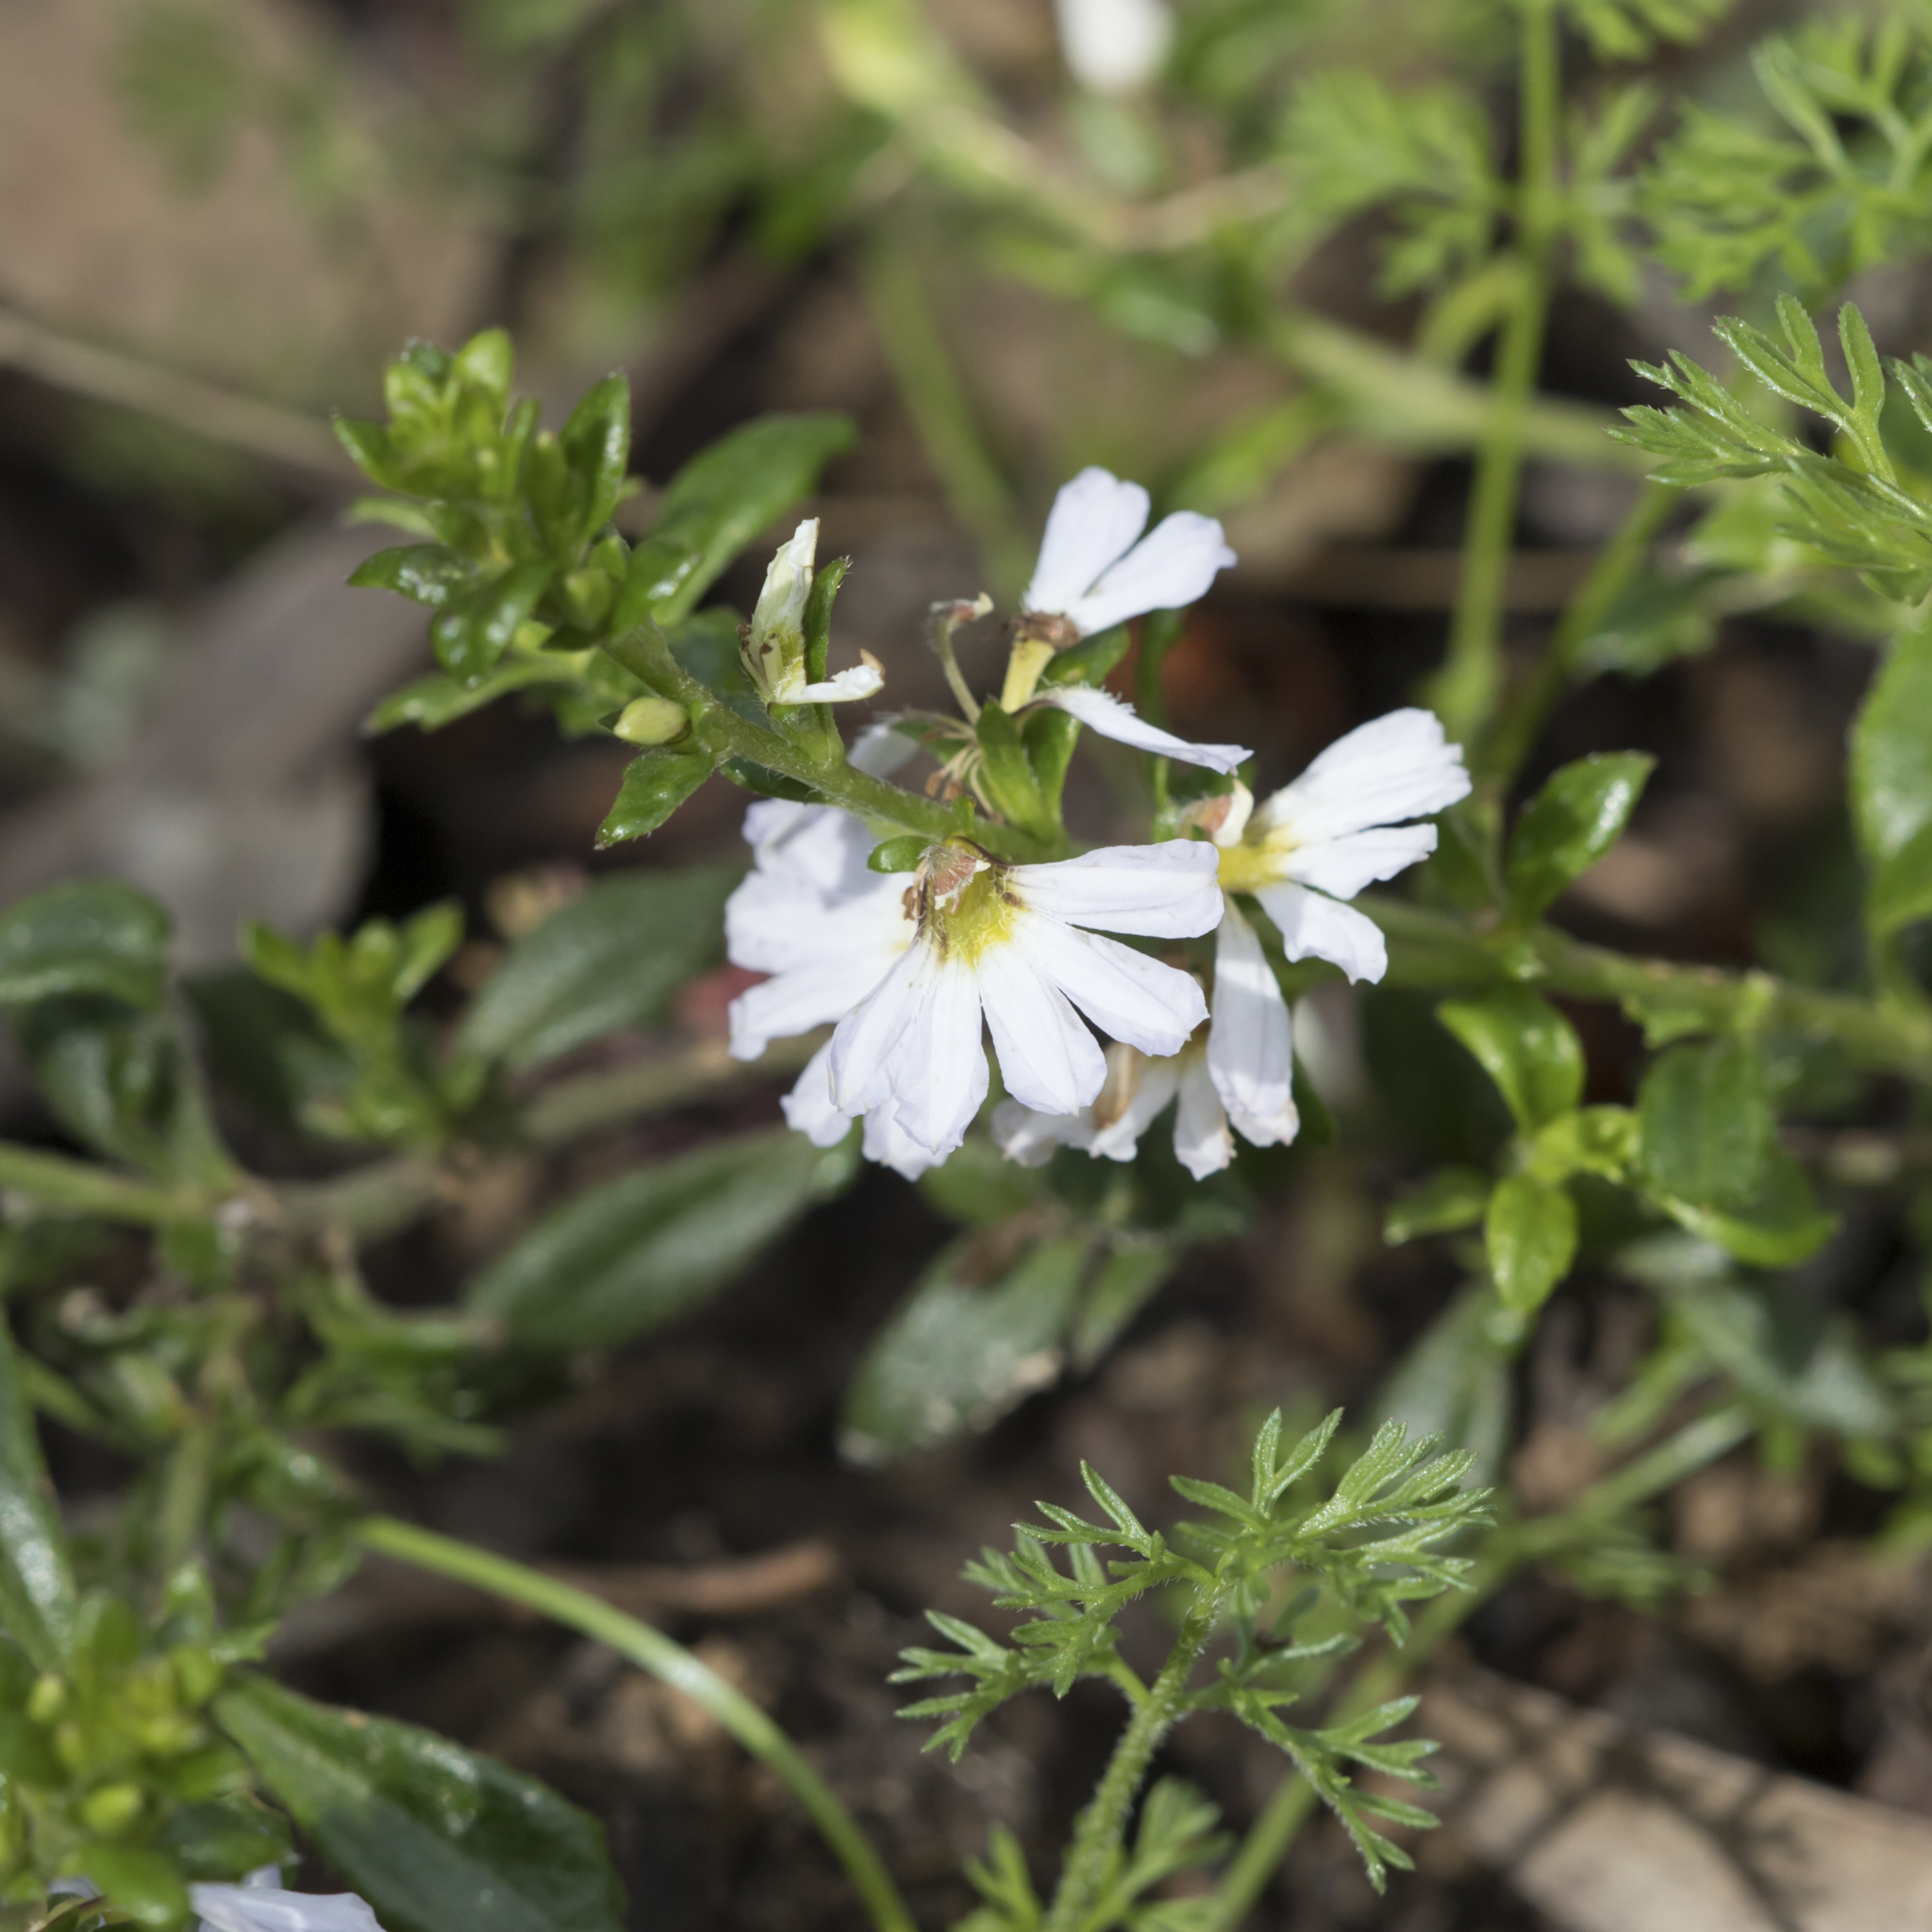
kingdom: Plantae
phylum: Tracheophyta
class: Magnoliopsida
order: Asterales
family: Goodeniaceae
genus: Scaevola
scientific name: Scaevola albida
